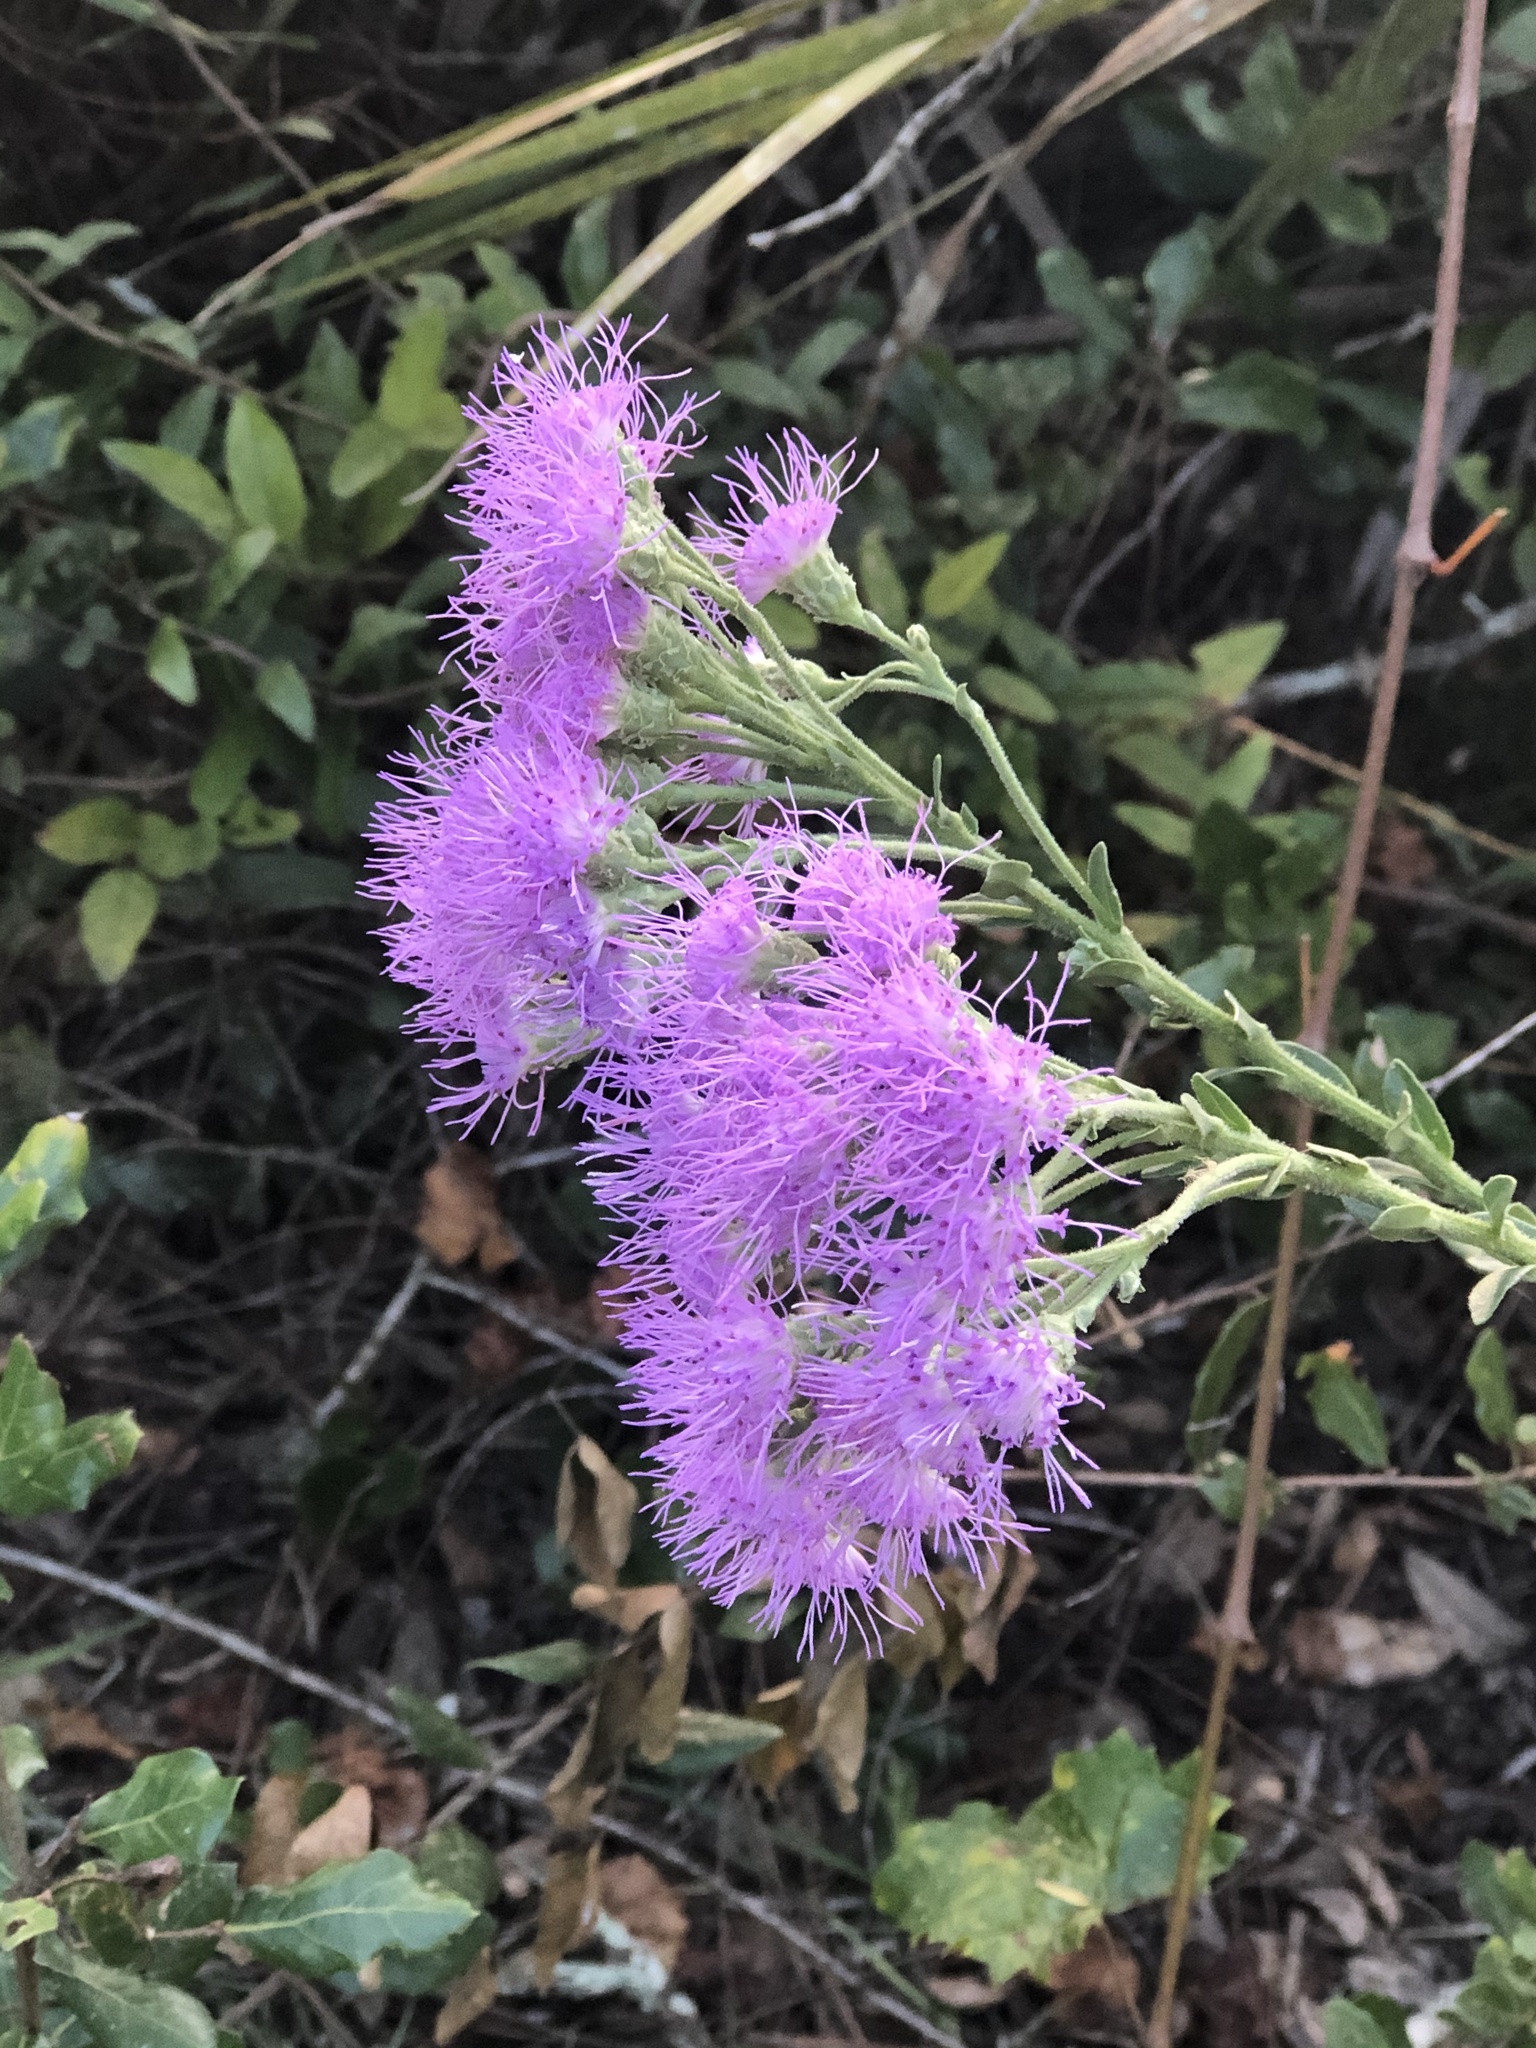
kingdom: Plantae
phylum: Tracheophyta
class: Magnoliopsida
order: Asterales
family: Asteraceae
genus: Carphephorus
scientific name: Carphephorus corymbosus
